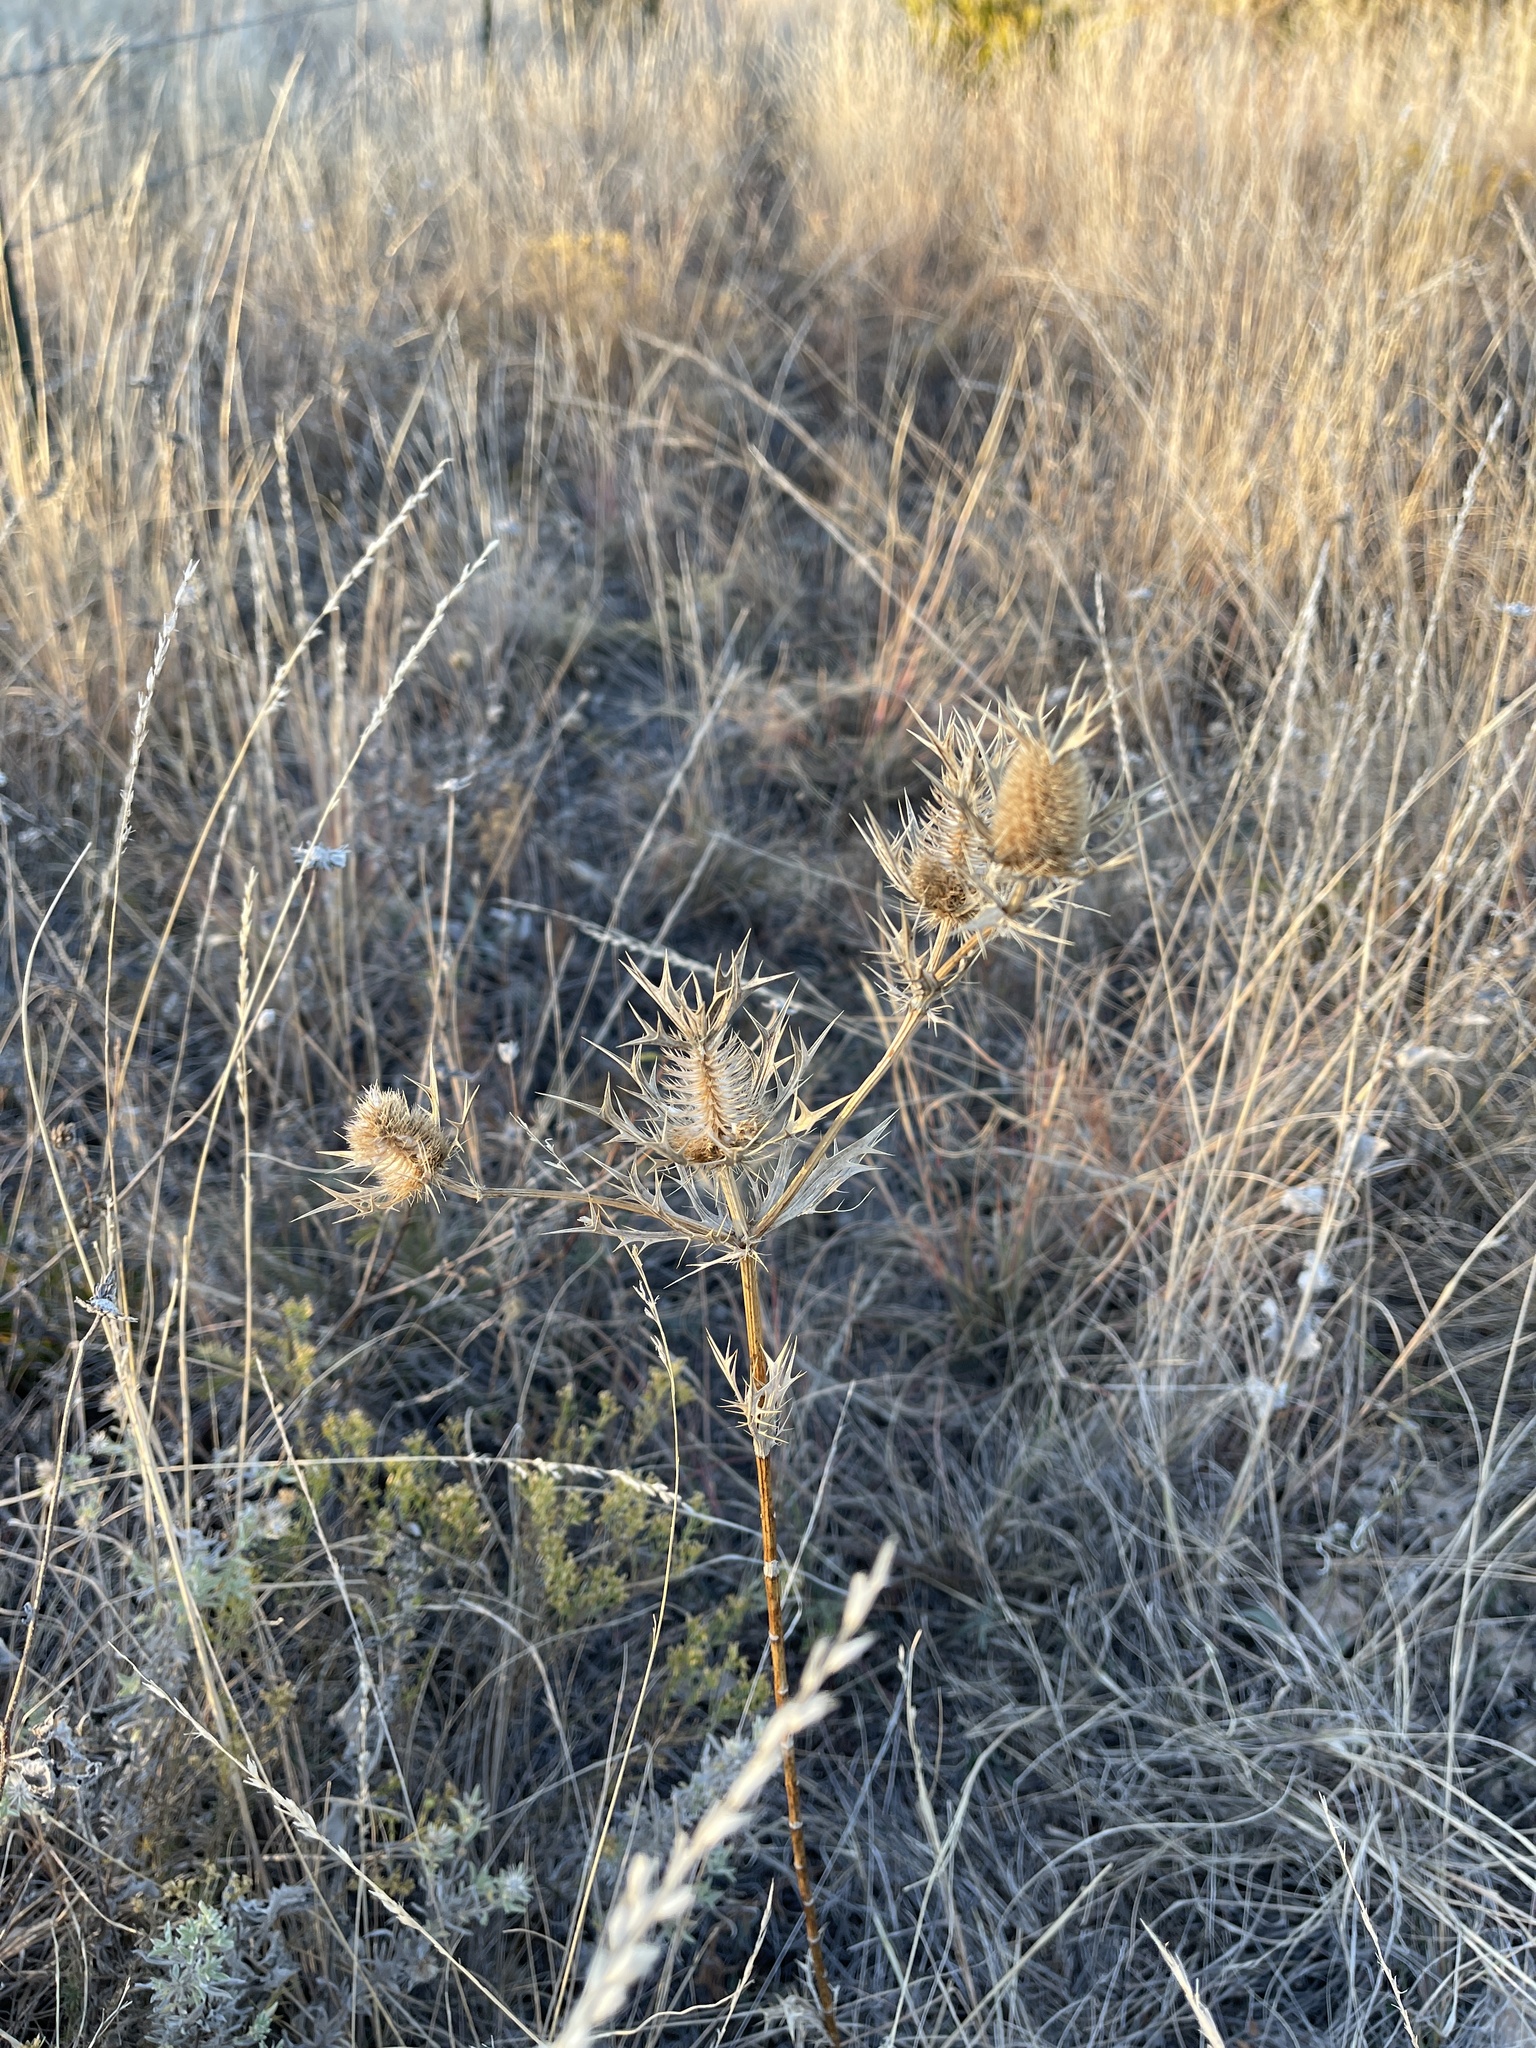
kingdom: Plantae
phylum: Tracheophyta
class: Magnoliopsida
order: Apiales
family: Apiaceae
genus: Eryngium
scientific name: Eryngium leavenworthii
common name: Leavenworth's eryngo
